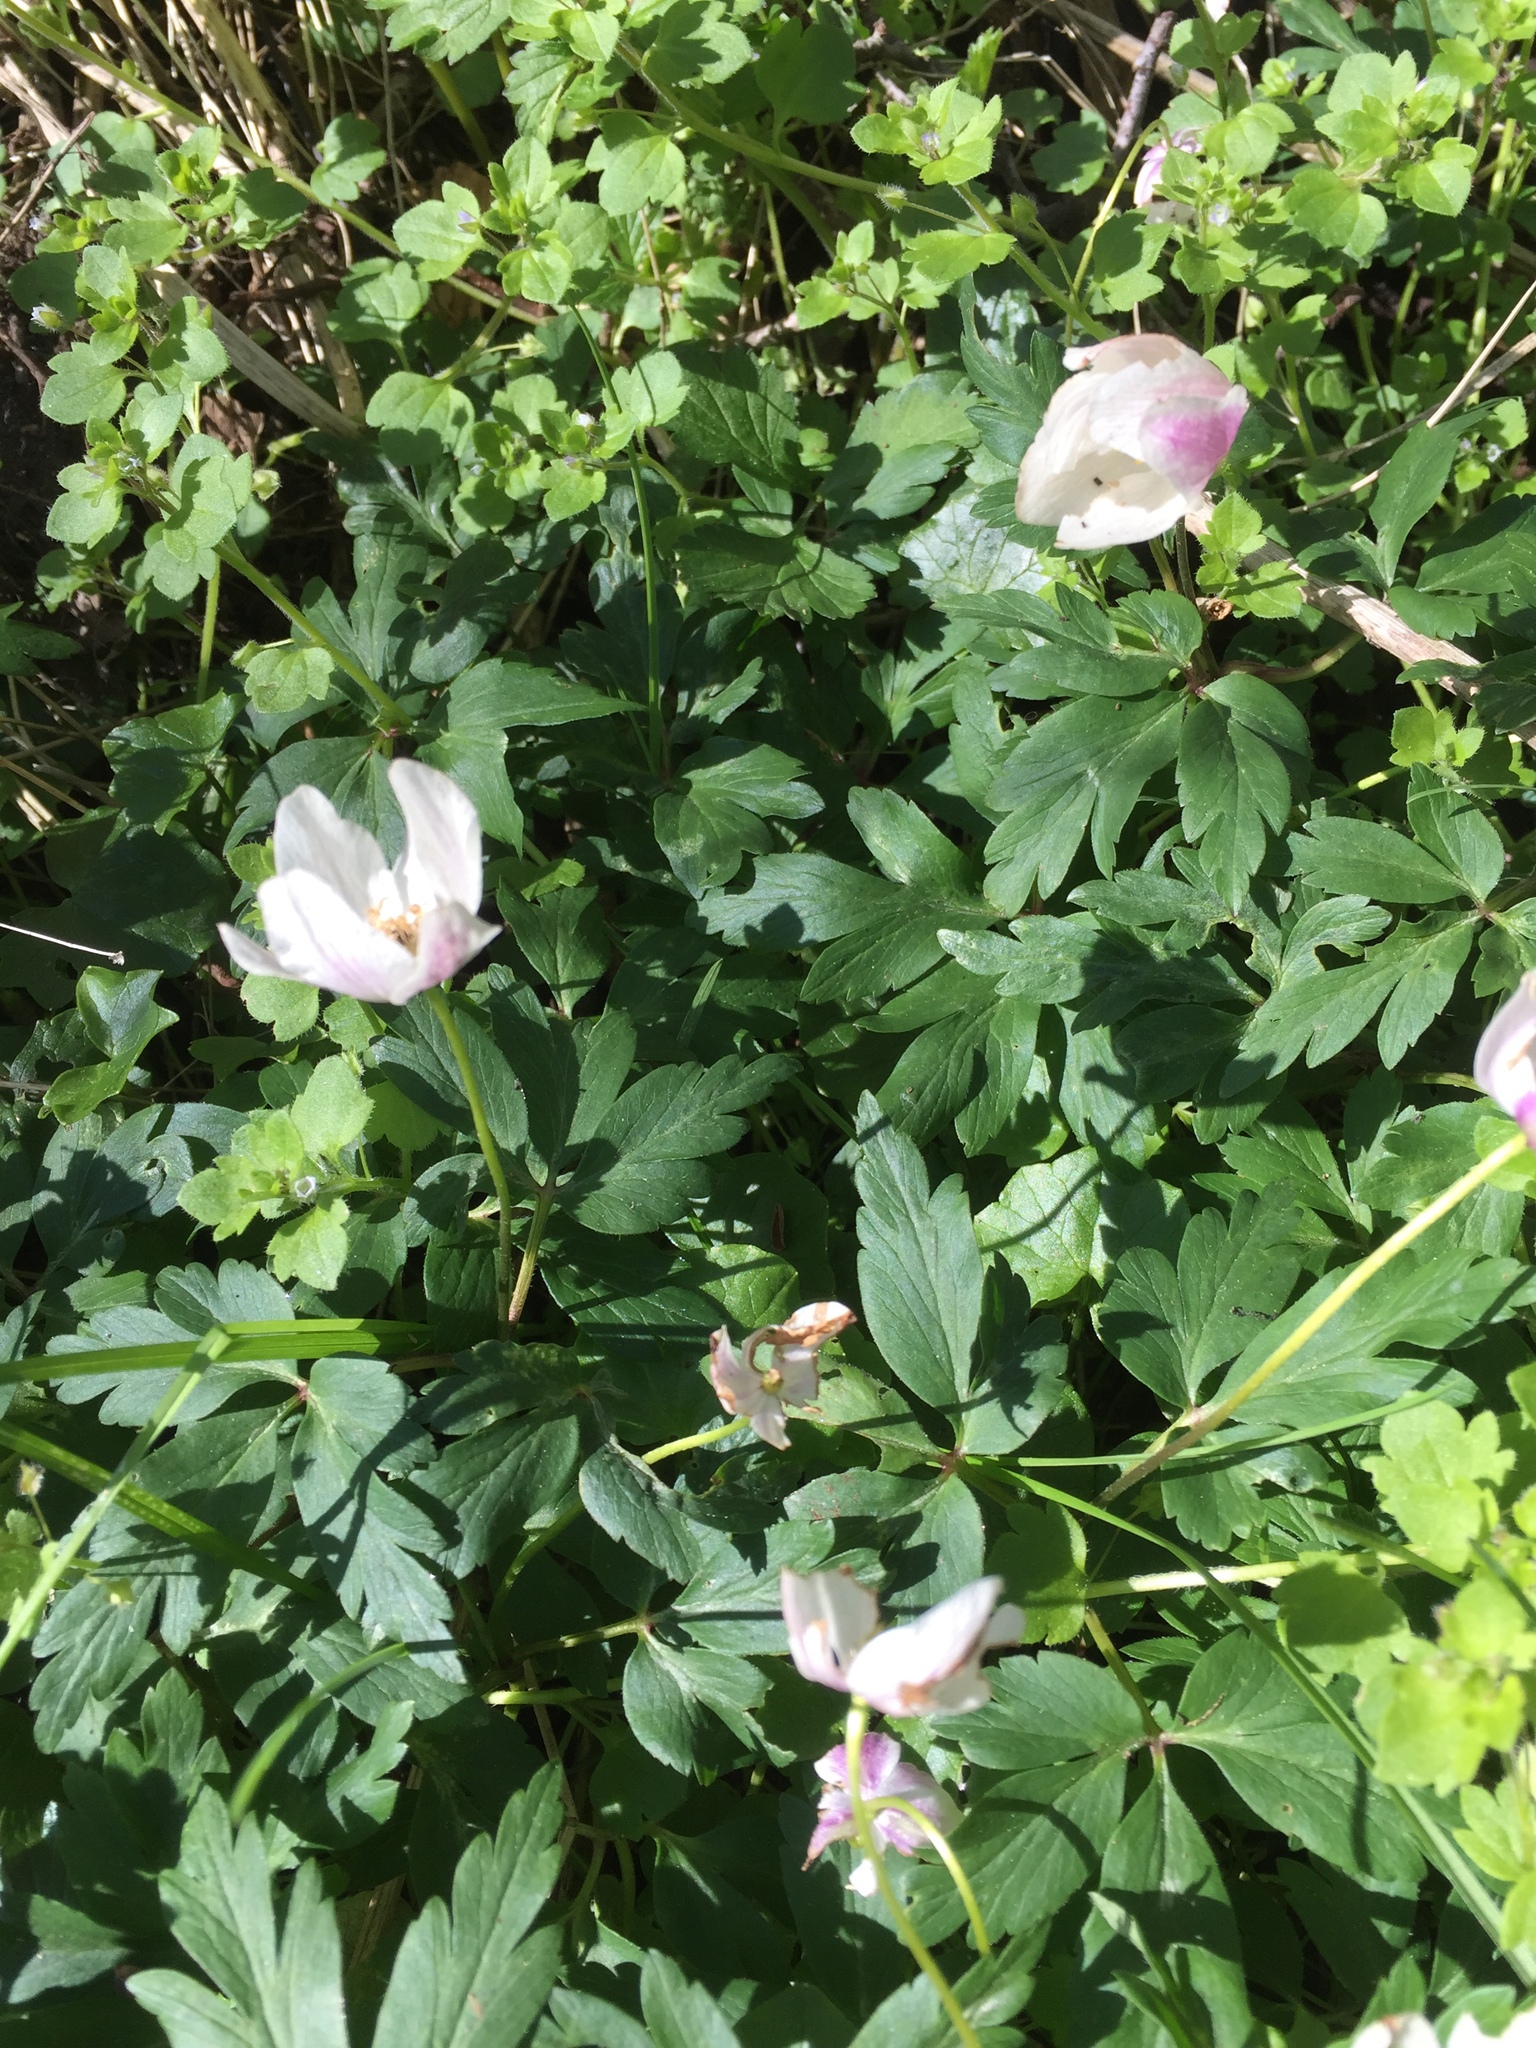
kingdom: Plantae
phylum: Tracheophyta
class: Magnoliopsida
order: Ranunculales
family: Ranunculaceae
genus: Anemone
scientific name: Anemone nemorosa
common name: Wood anemone
